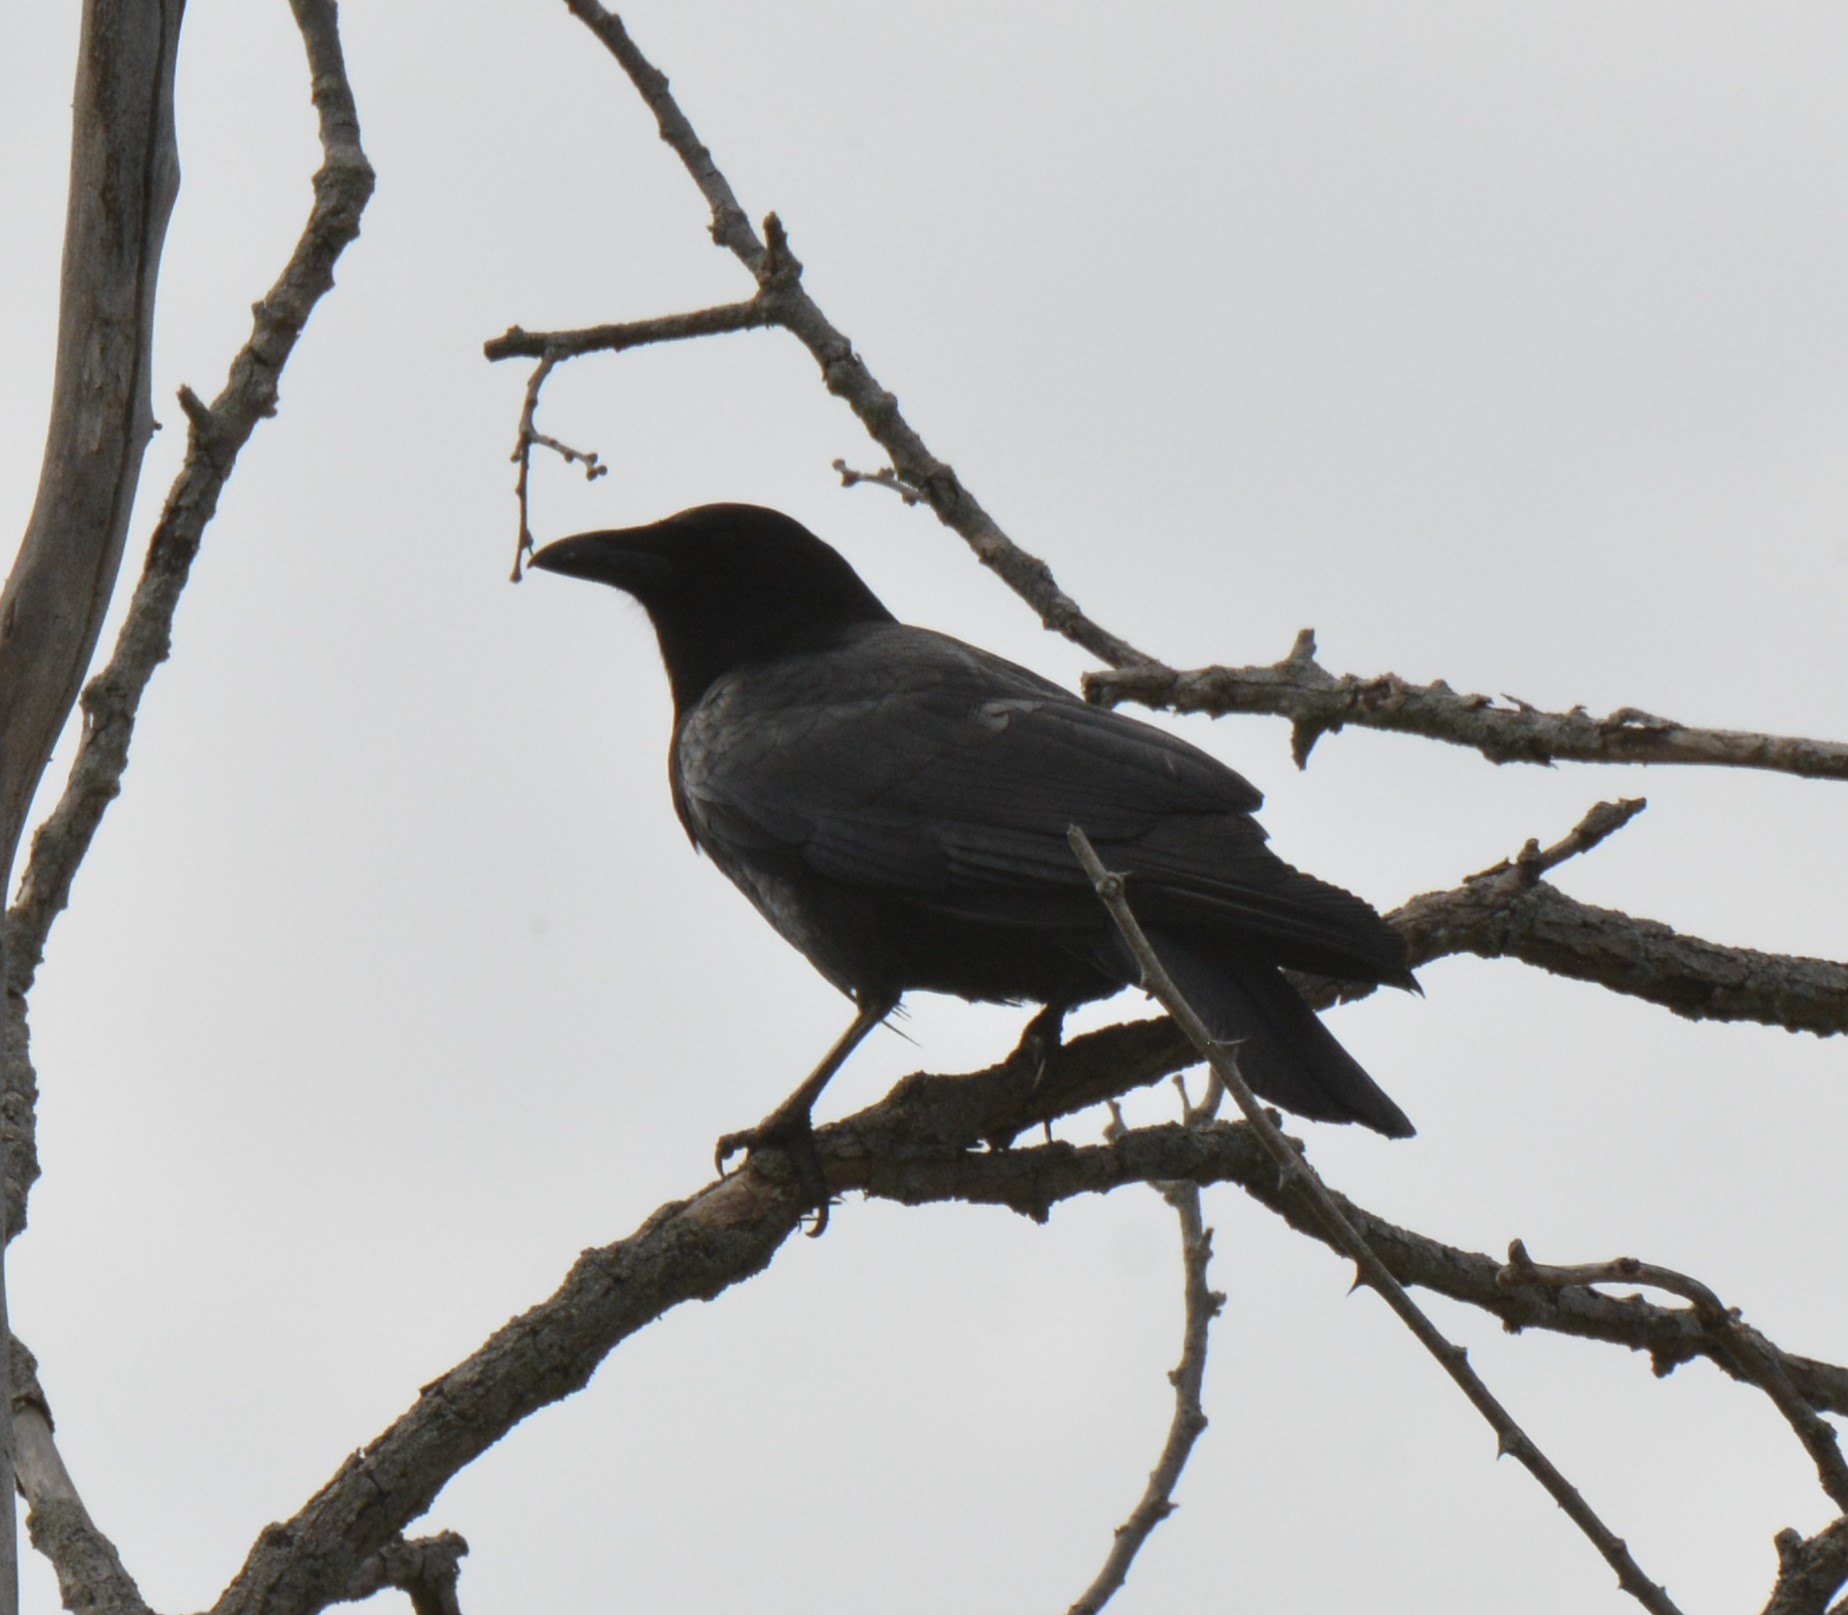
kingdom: Animalia
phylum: Chordata
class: Aves
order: Passeriformes
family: Corvidae
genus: Corvus
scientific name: Corvus brachyrhynchos
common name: American crow
